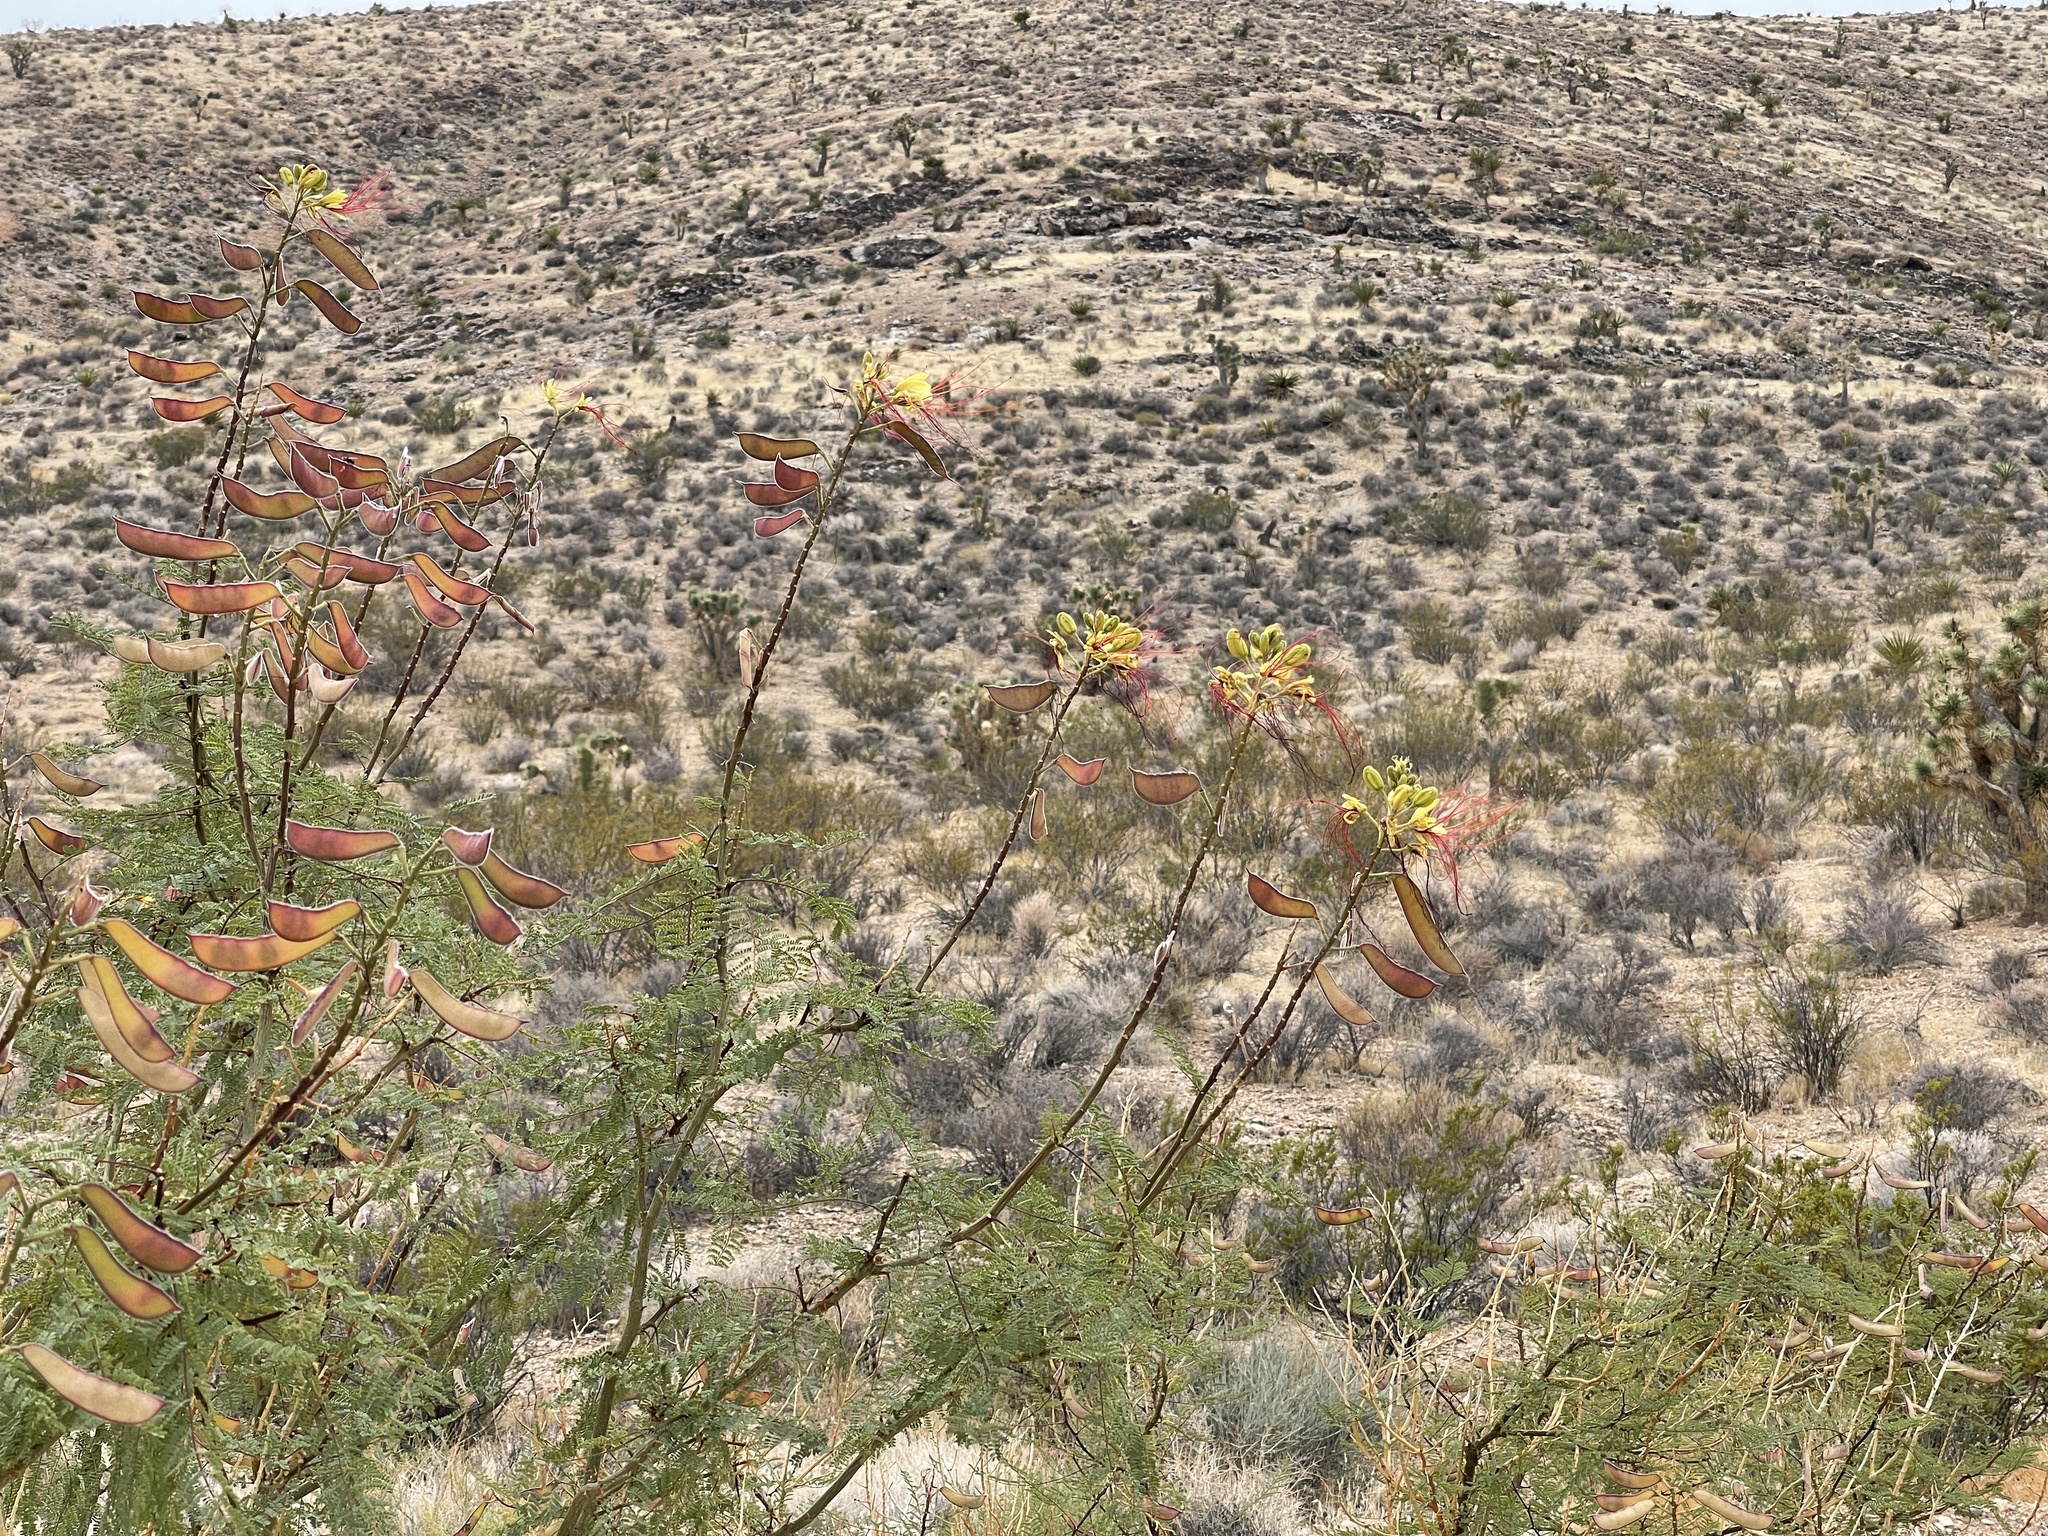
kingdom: Plantae
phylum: Tracheophyta
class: Magnoliopsida
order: Fabales
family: Fabaceae
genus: Erythrostemon
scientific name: Erythrostemon gilliesii
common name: Bird-of-paradise shrub
